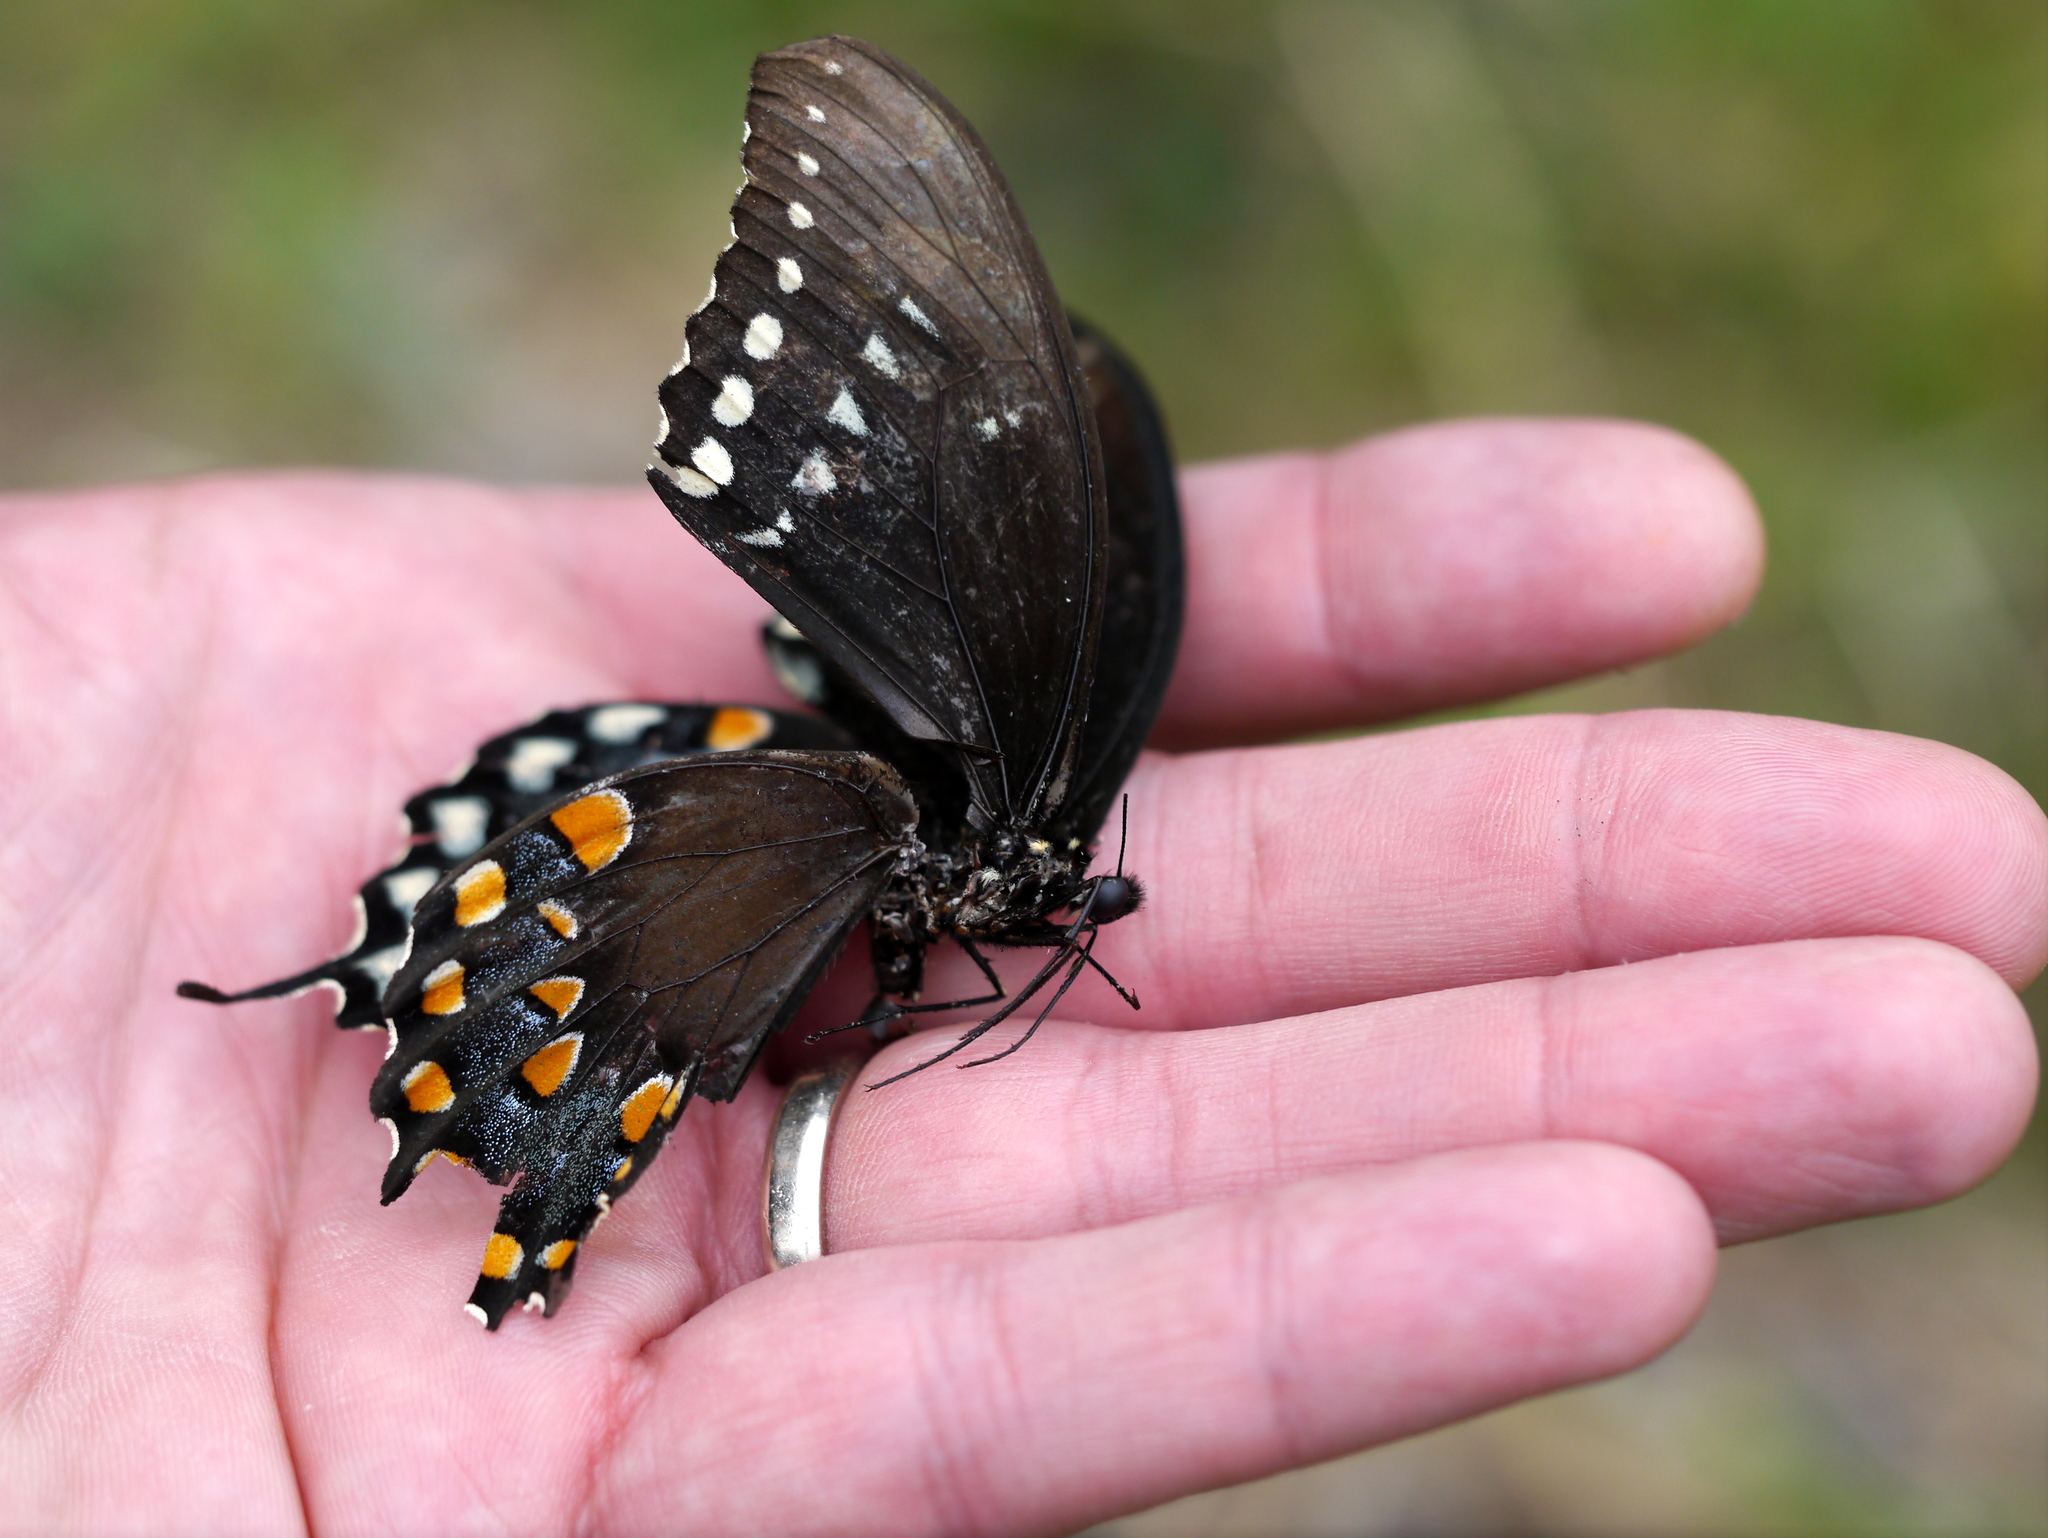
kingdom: Animalia
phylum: Arthropoda
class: Insecta
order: Lepidoptera
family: Papilionidae
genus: Papilio
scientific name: Papilio troilus
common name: Spicebush swallowtail
